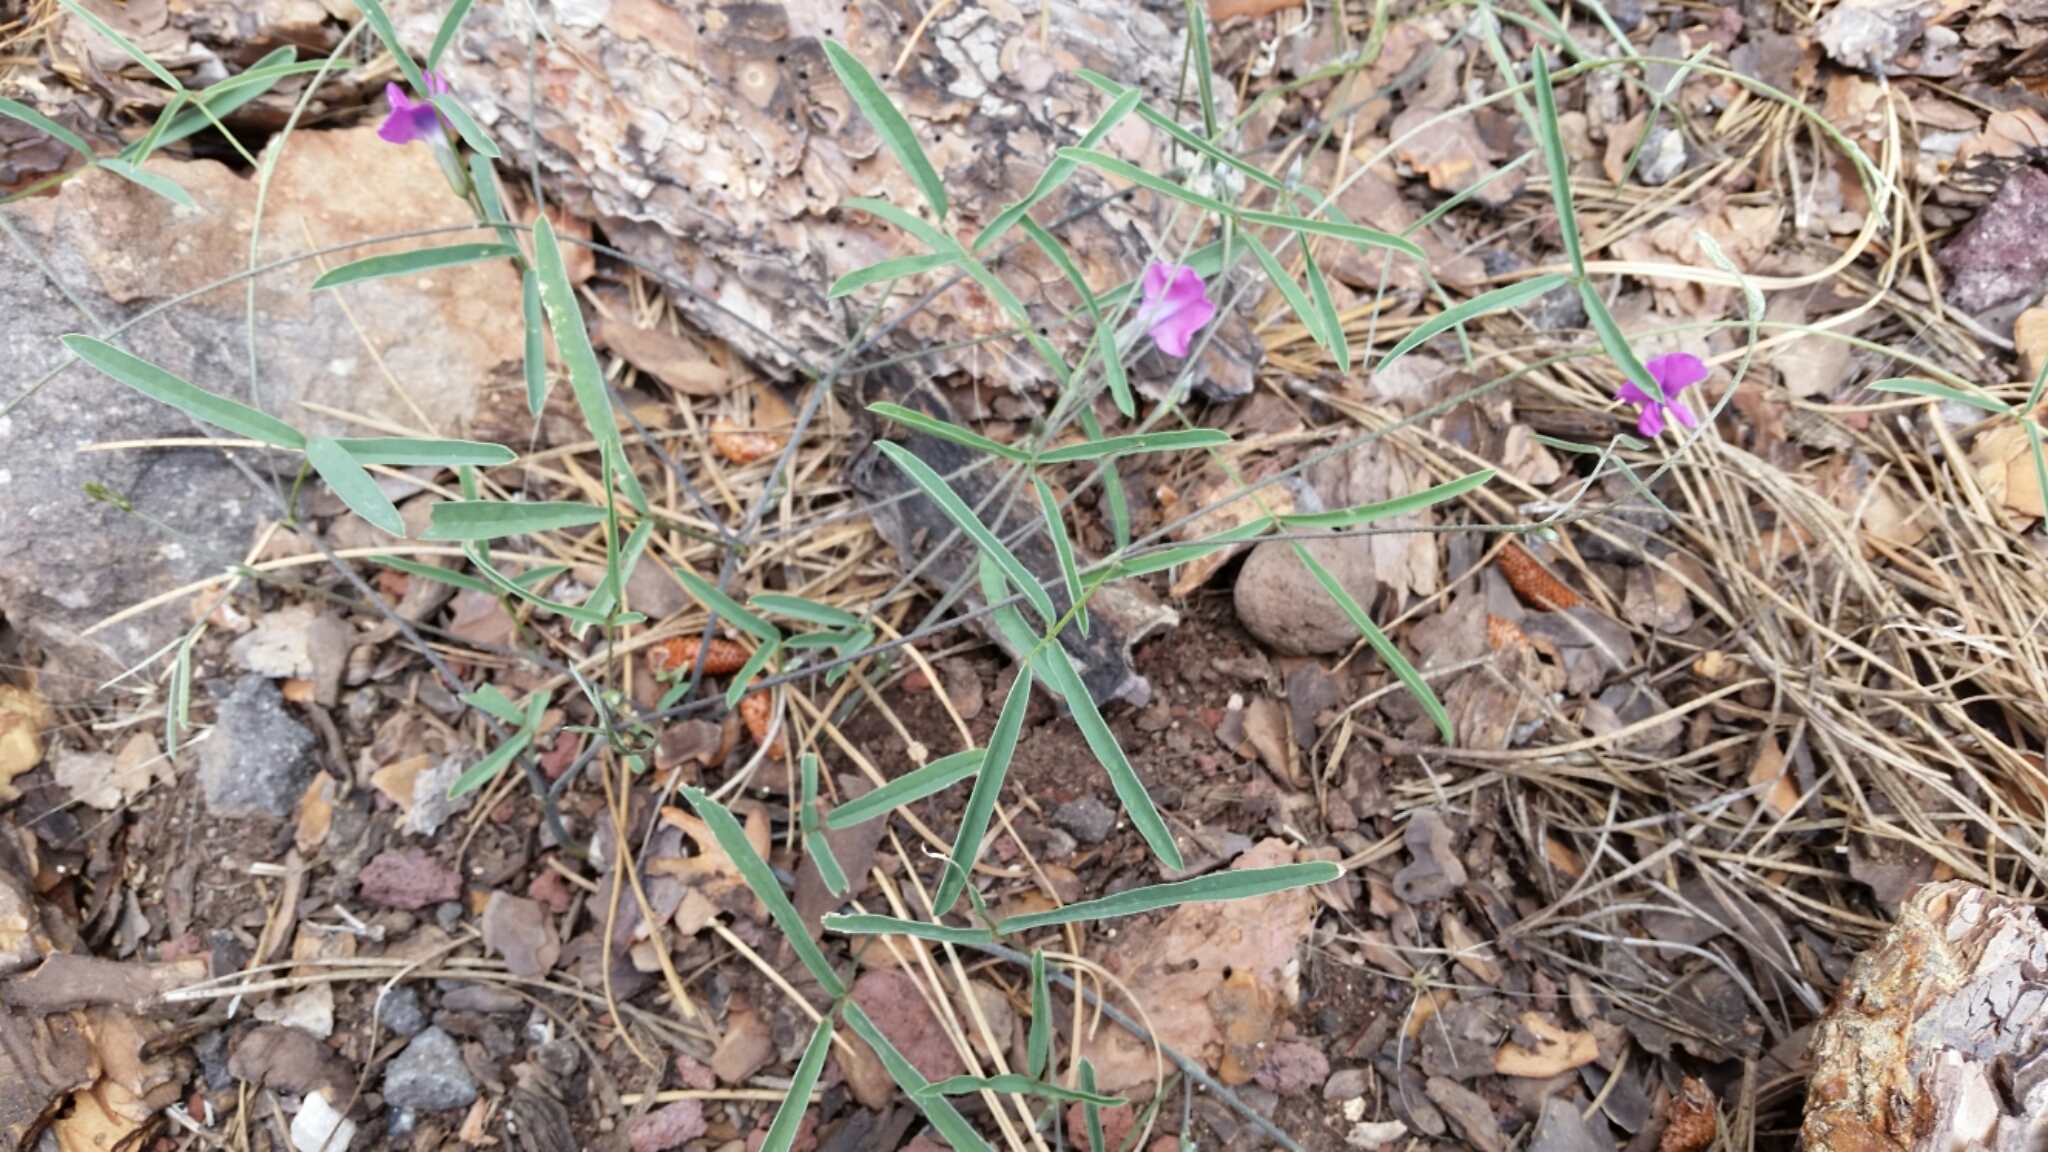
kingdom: Plantae
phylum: Tracheophyta
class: Magnoliopsida
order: Fabales
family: Fabaceae
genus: Cologania
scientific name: Cologania angustifolia
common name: Longleaf cologania
